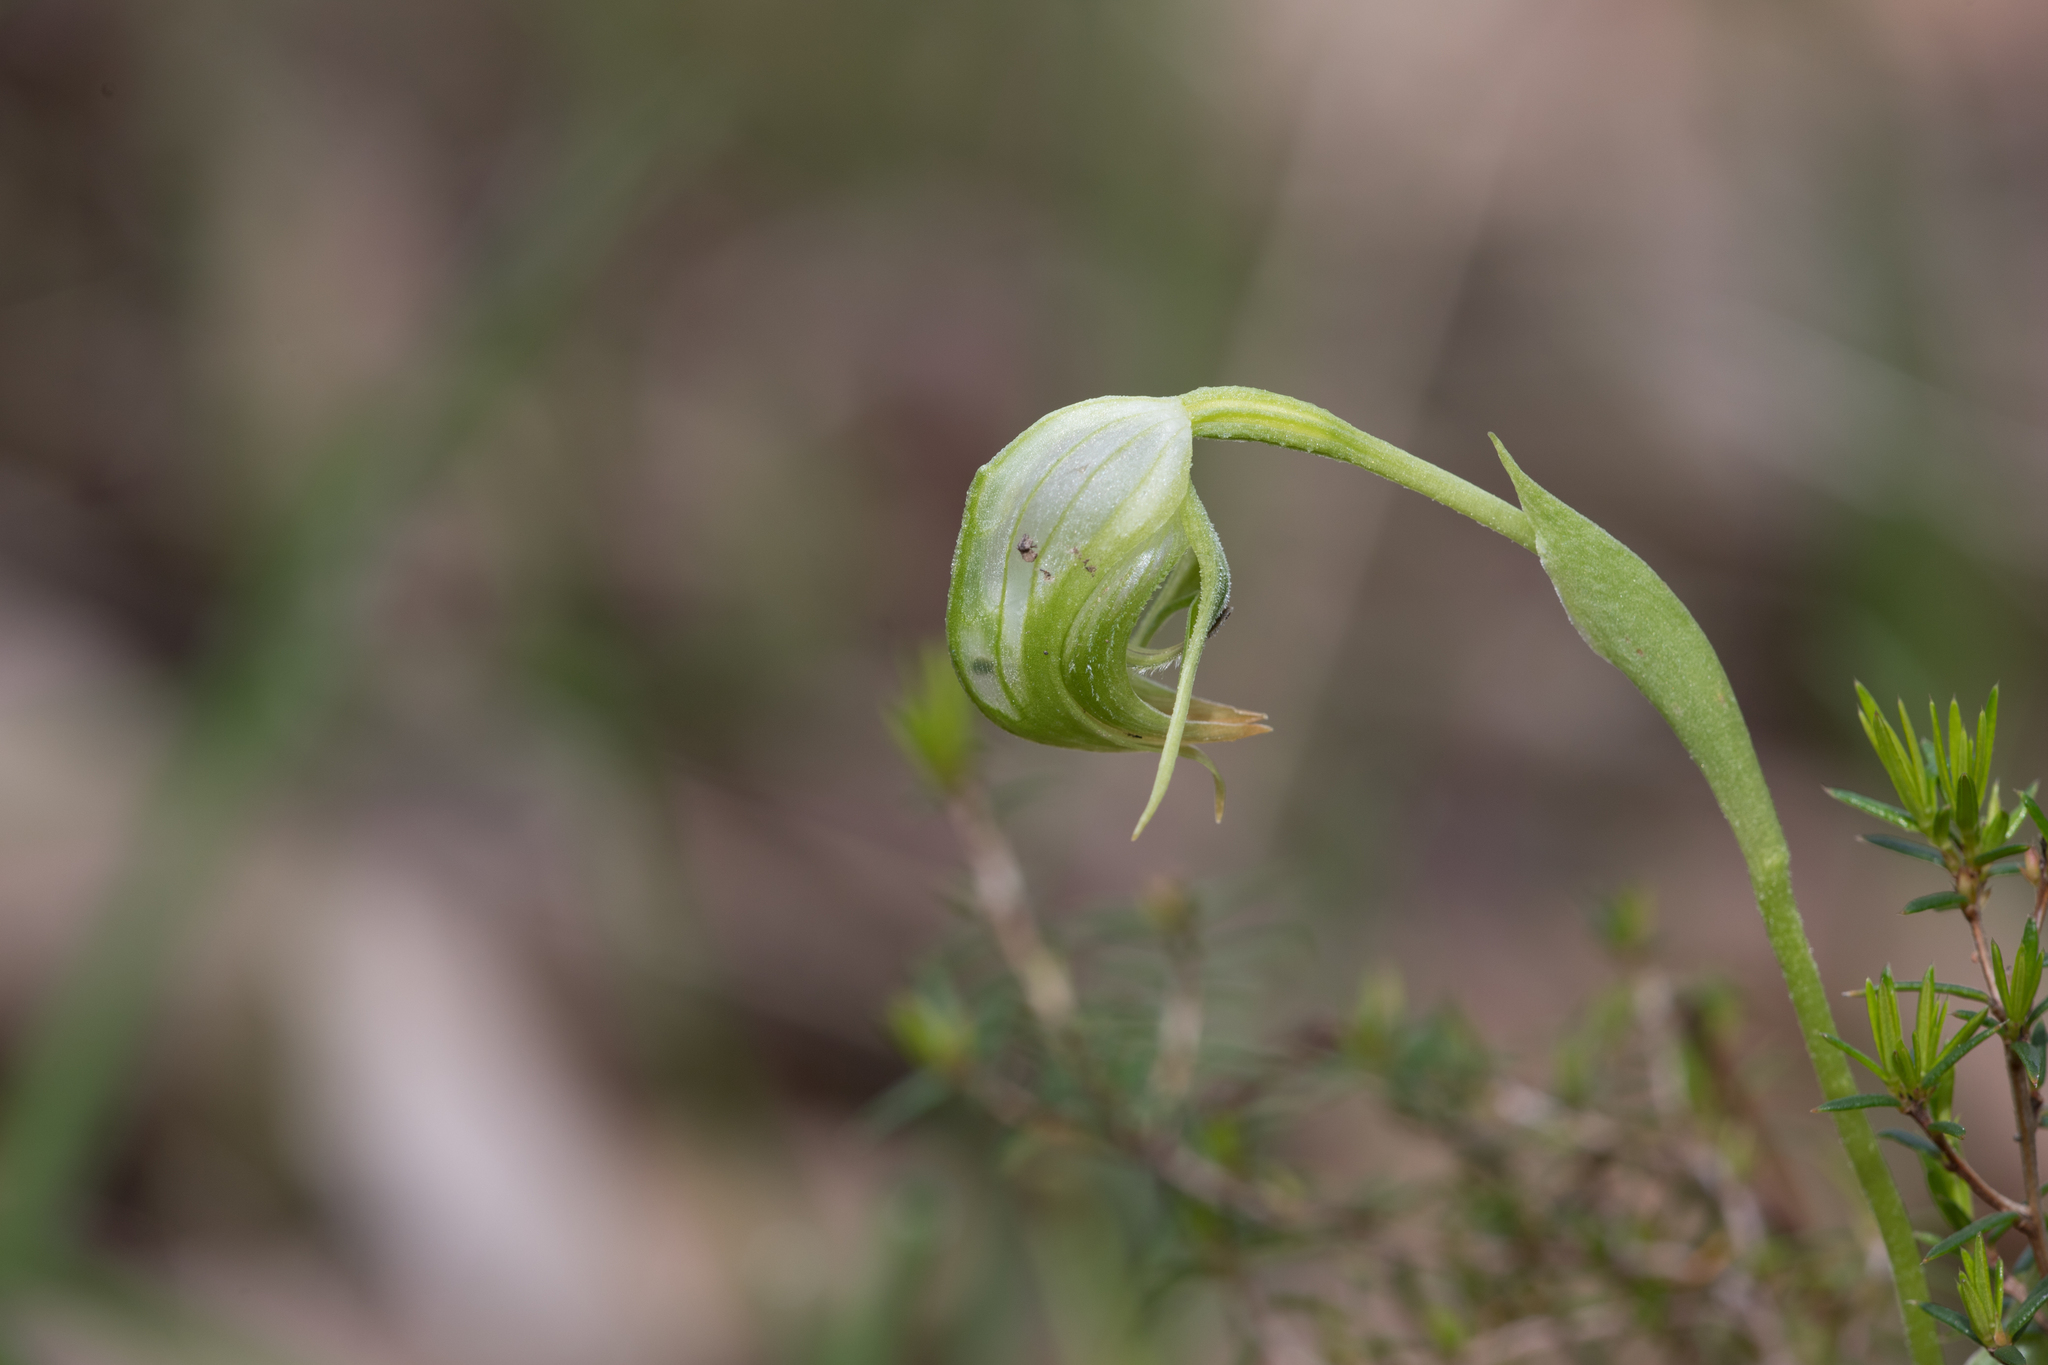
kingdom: Plantae
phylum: Tracheophyta
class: Liliopsida
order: Asparagales
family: Orchidaceae
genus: Pterostylis
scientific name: Pterostylis nutans
